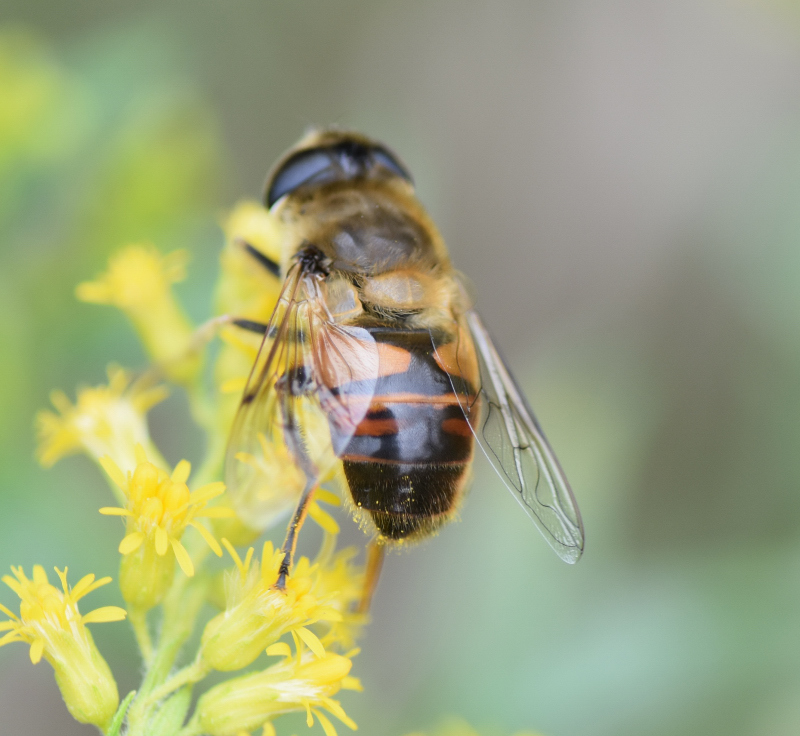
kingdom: Animalia
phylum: Arthropoda
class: Insecta
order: Diptera
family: Syrphidae
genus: Eristalis
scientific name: Eristalis tenax
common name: Drone fly
